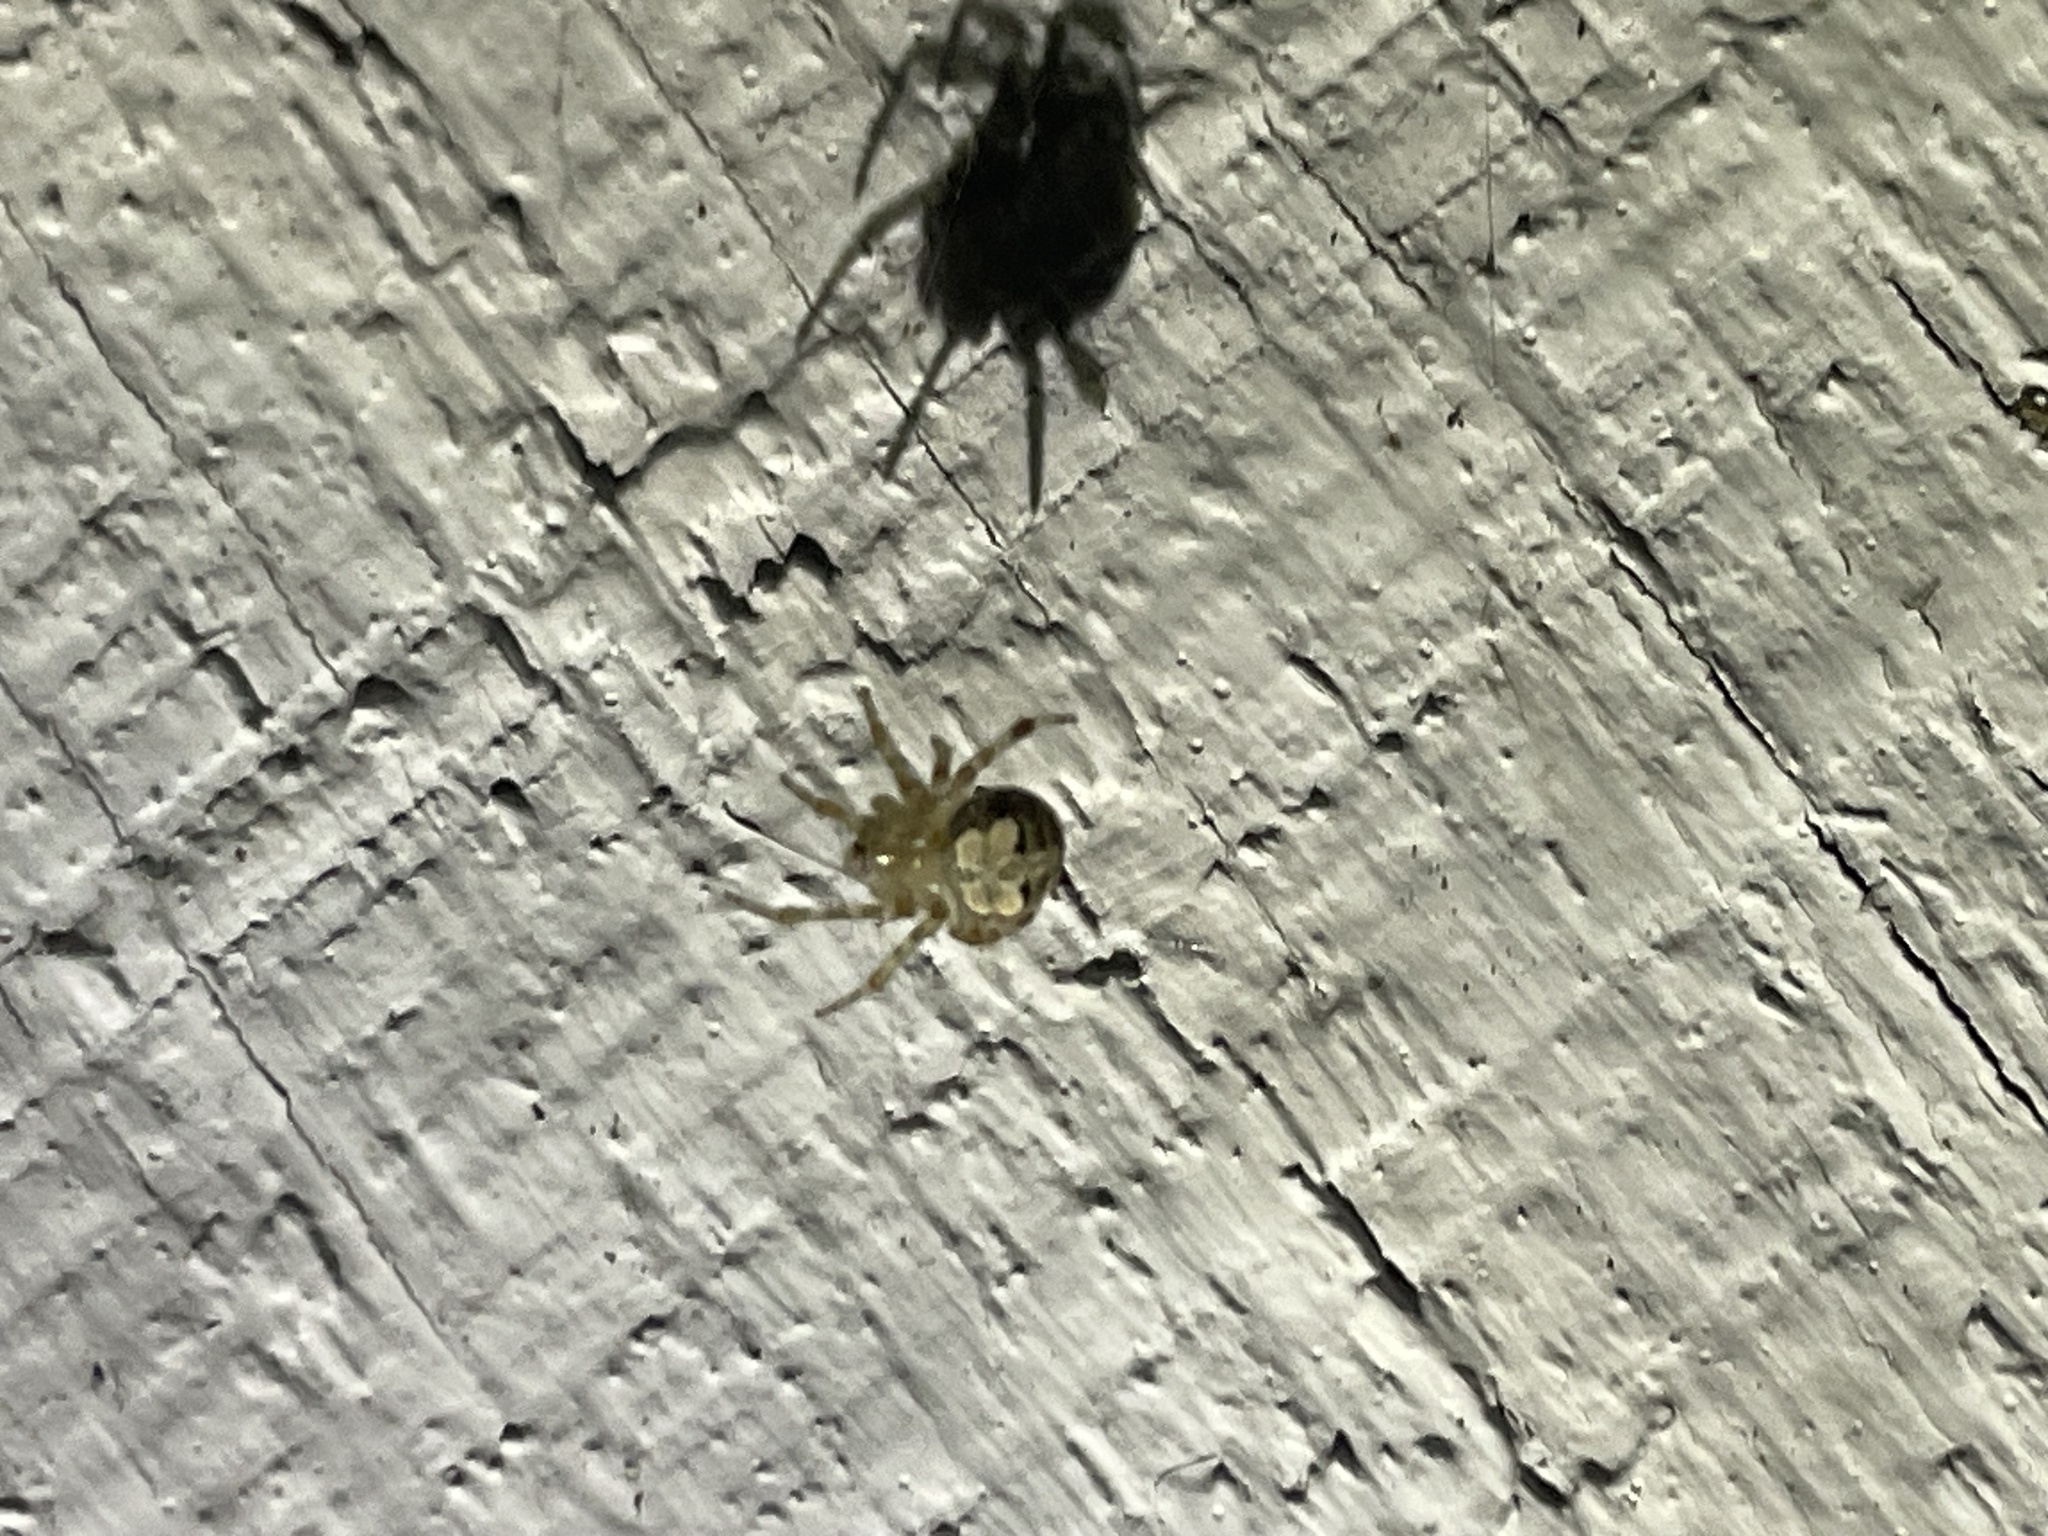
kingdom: Animalia
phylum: Arthropoda
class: Arachnida
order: Araneae
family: Araneidae
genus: Araneus
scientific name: Araneus pegnia
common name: Orb weavers
